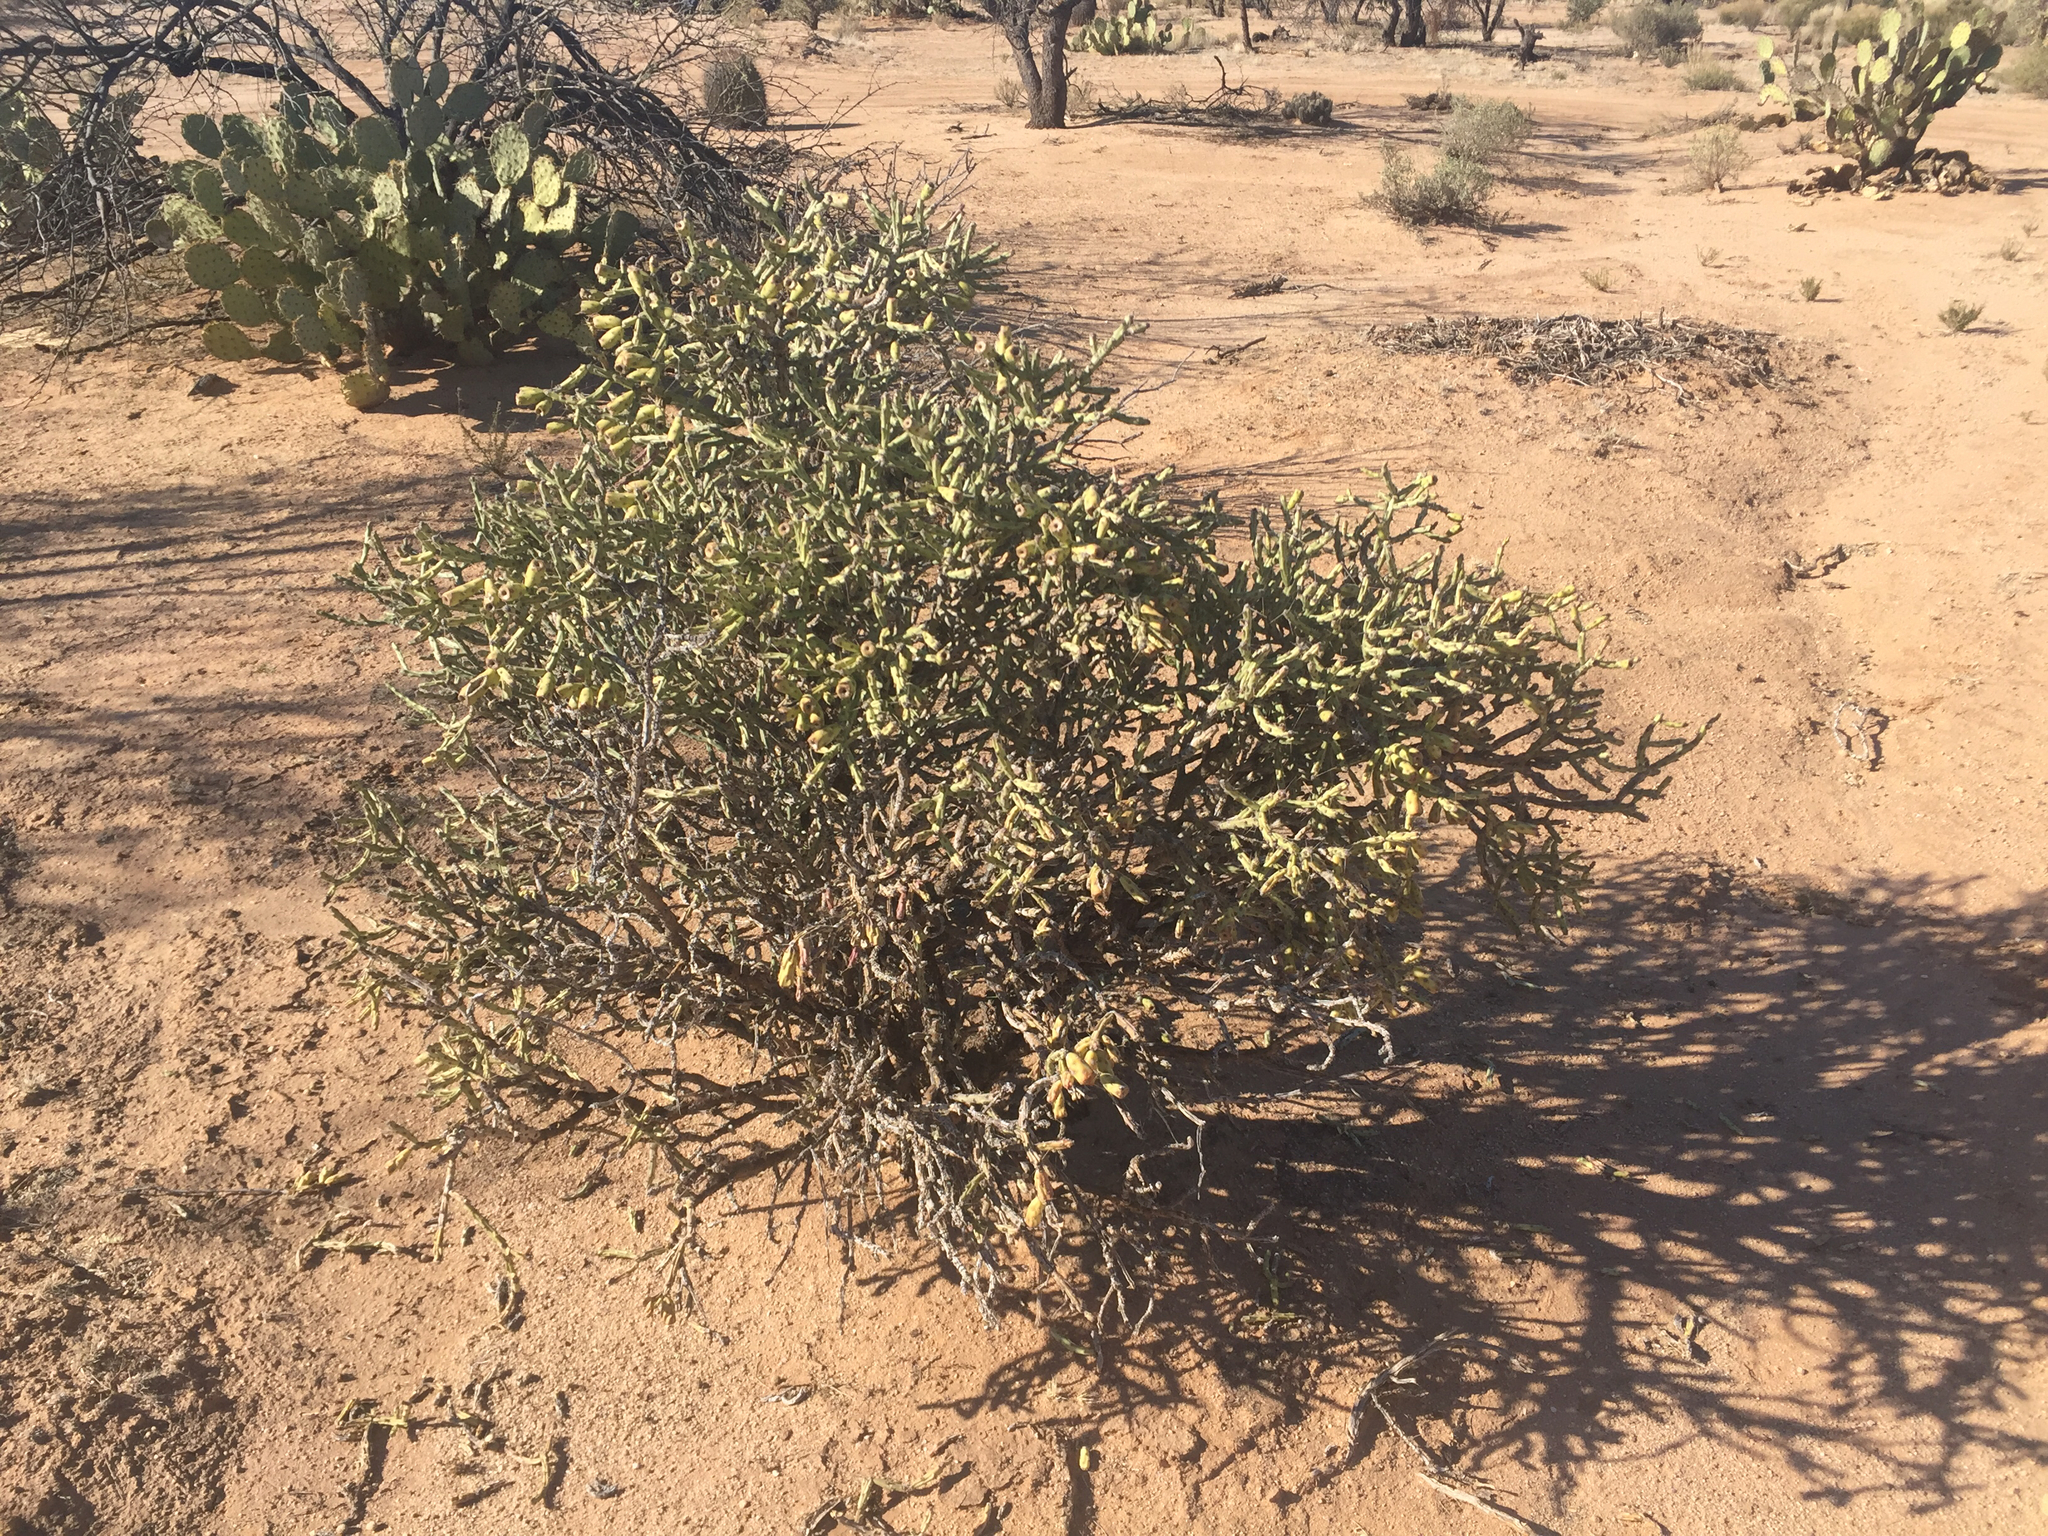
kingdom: Plantae
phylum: Tracheophyta
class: Magnoliopsida
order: Caryophyllales
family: Cactaceae
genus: Cylindropuntia
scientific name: Cylindropuntia arbuscula
